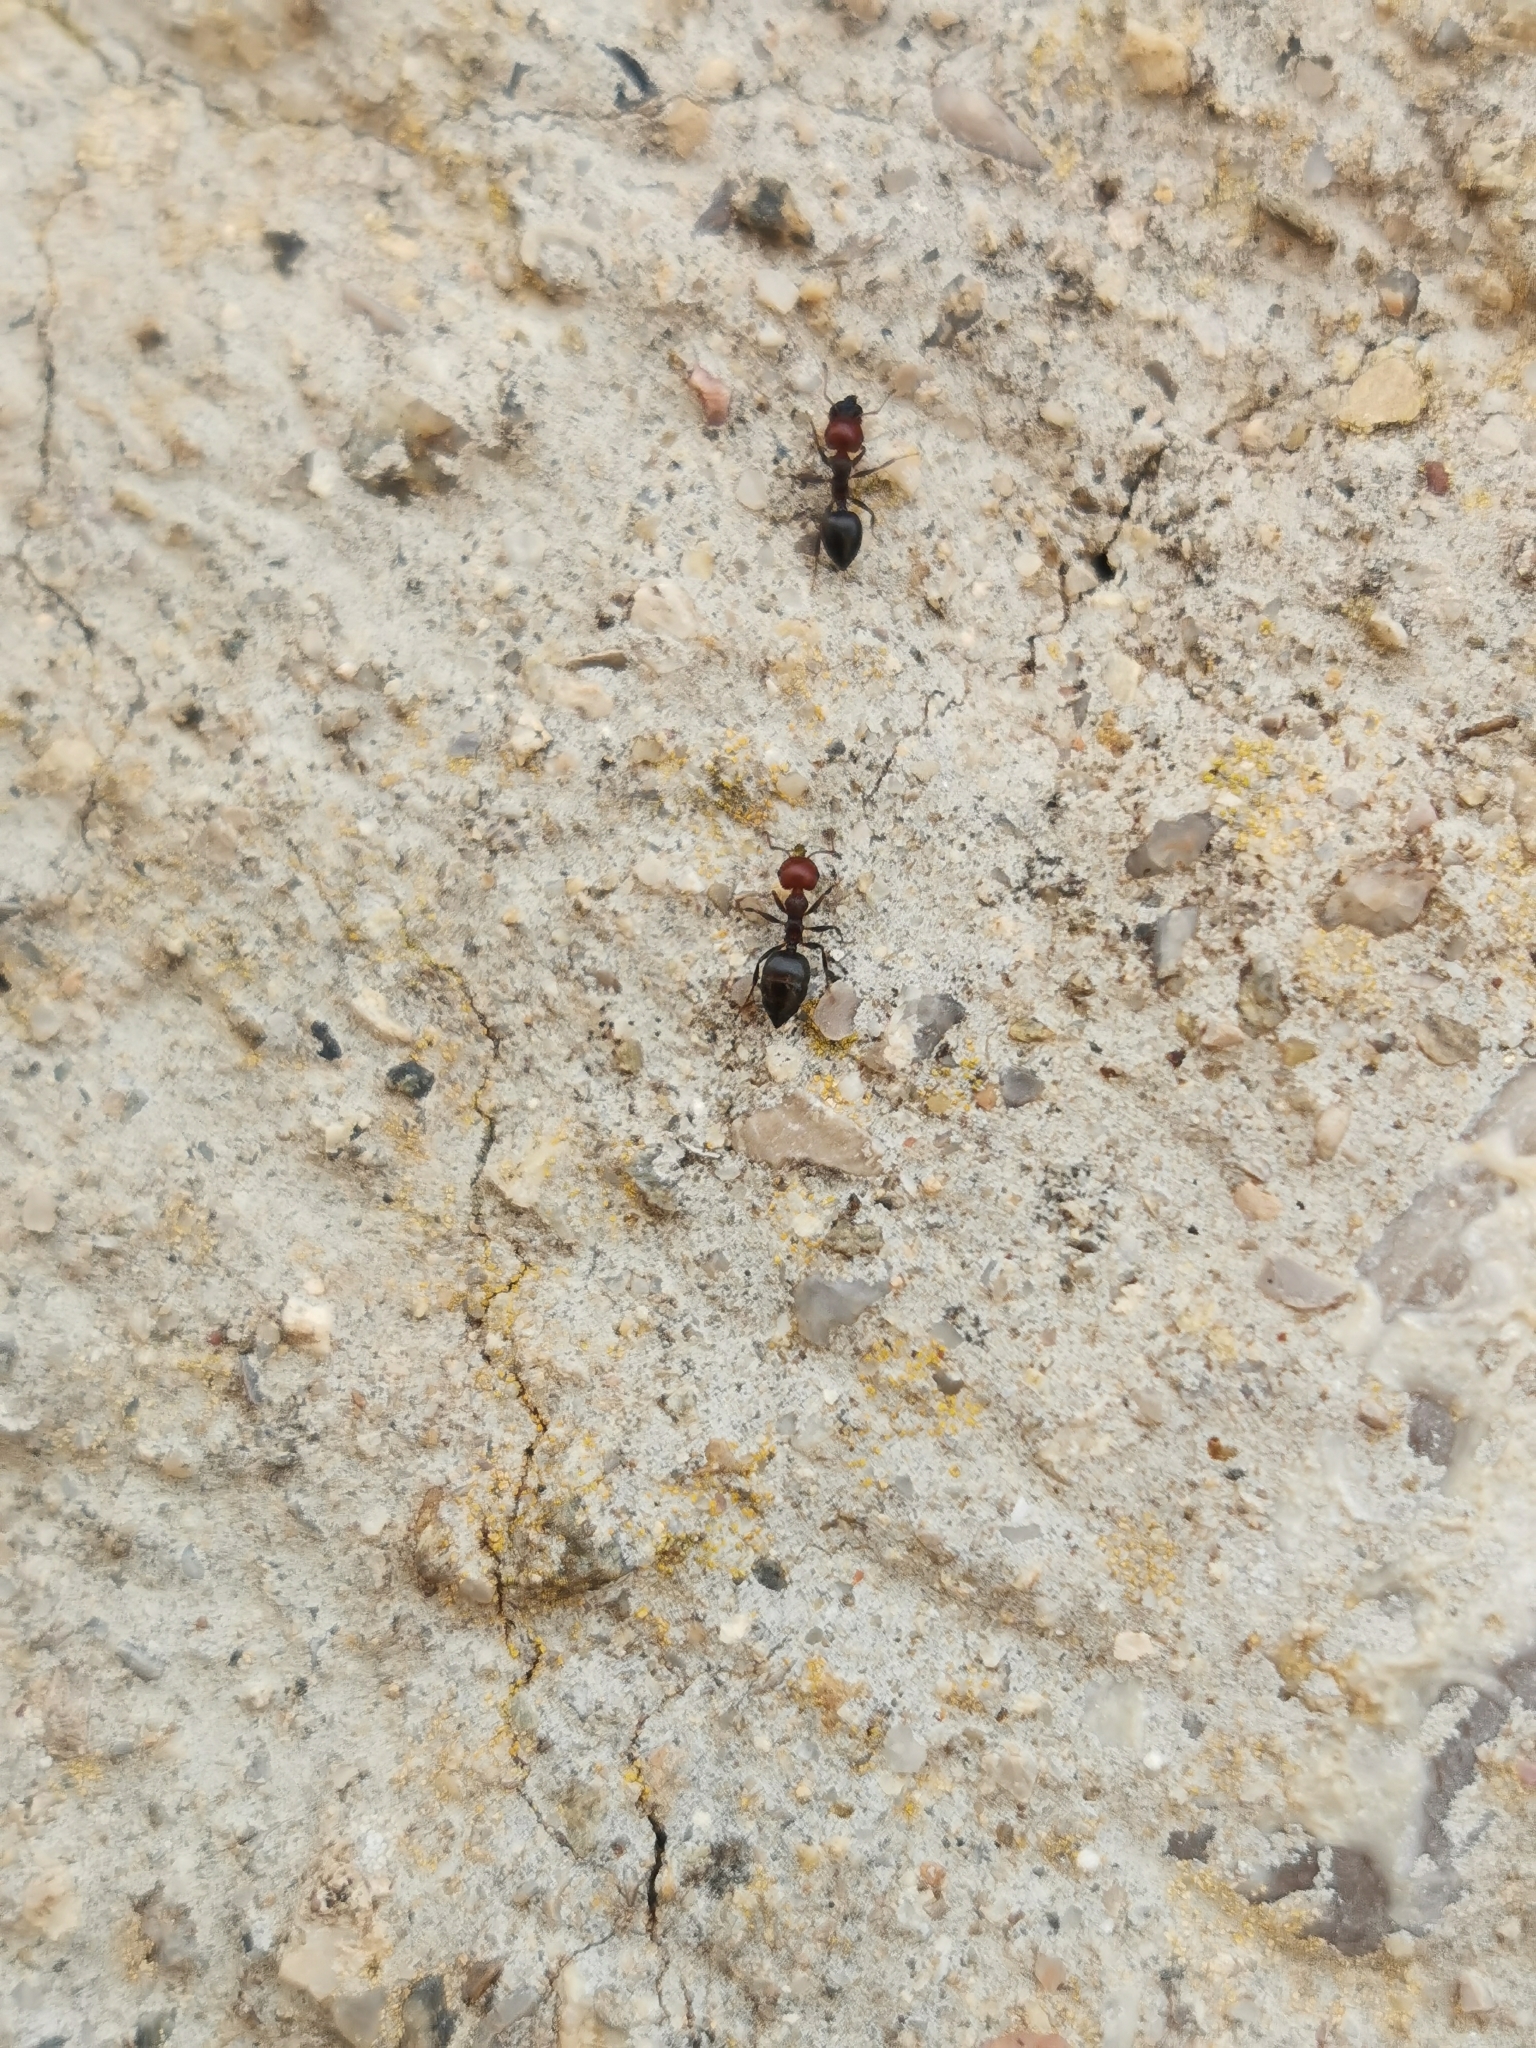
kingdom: Animalia
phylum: Arthropoda
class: Insecta
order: Hymenoptera
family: Formicidae
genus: Crematogaster
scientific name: Crematogaster scutellaris
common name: Fourmi du liège
